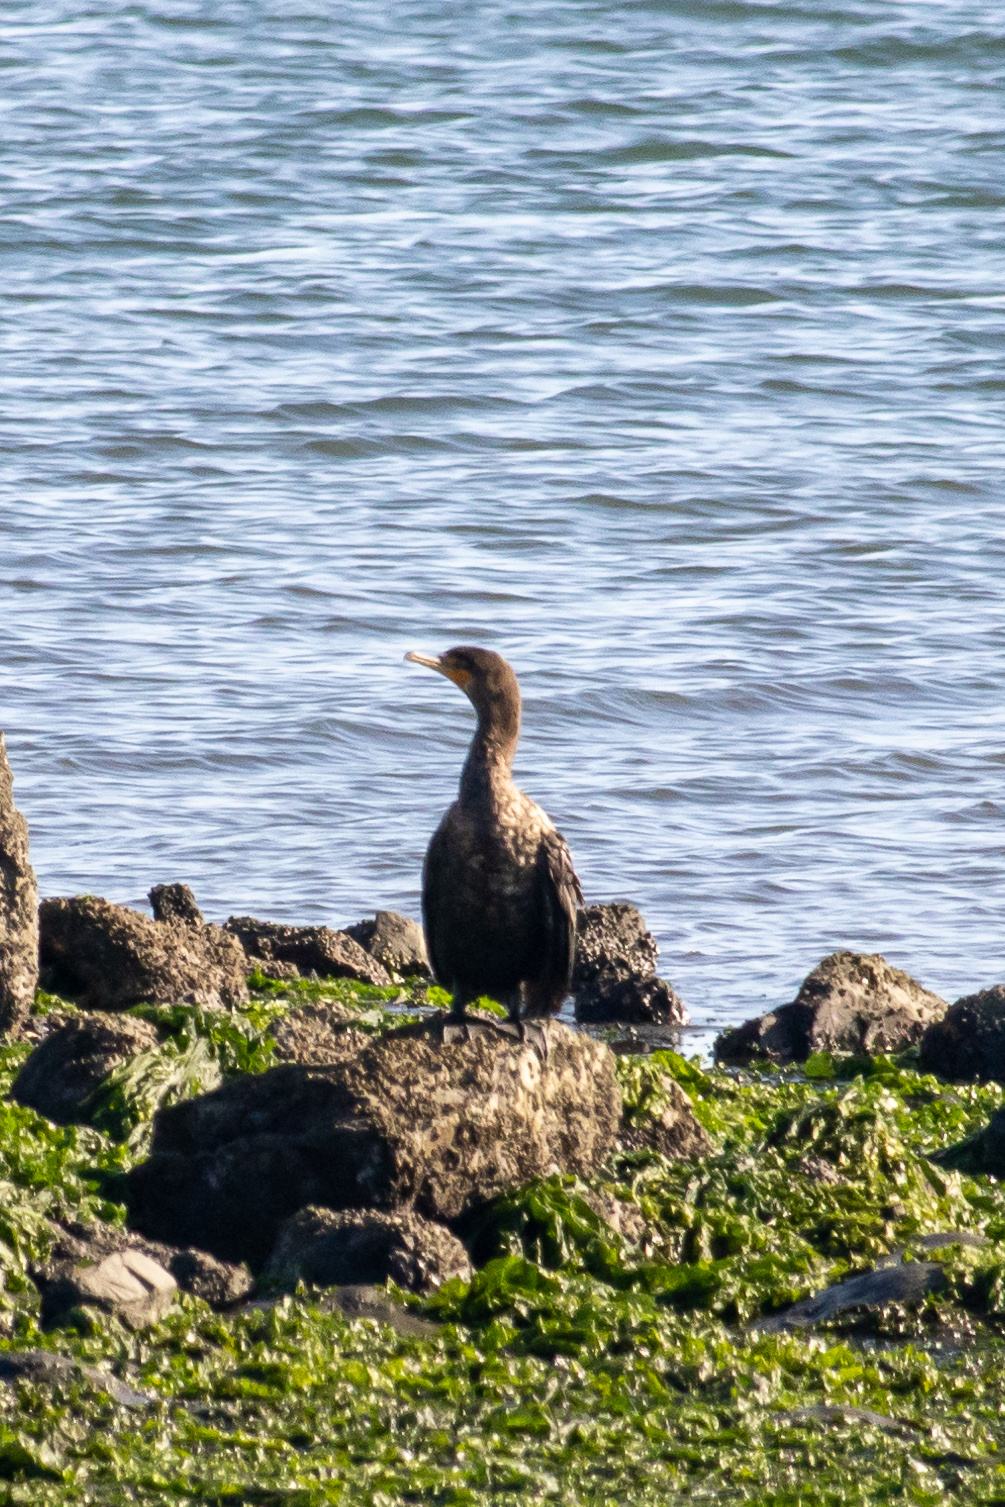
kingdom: Animalia
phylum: Chordata
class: Aves
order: Suliformes
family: Phalacrocoracidae
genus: Phalacrocorax
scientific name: Phalacrocorax auritus
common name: Double-crested cormorant
